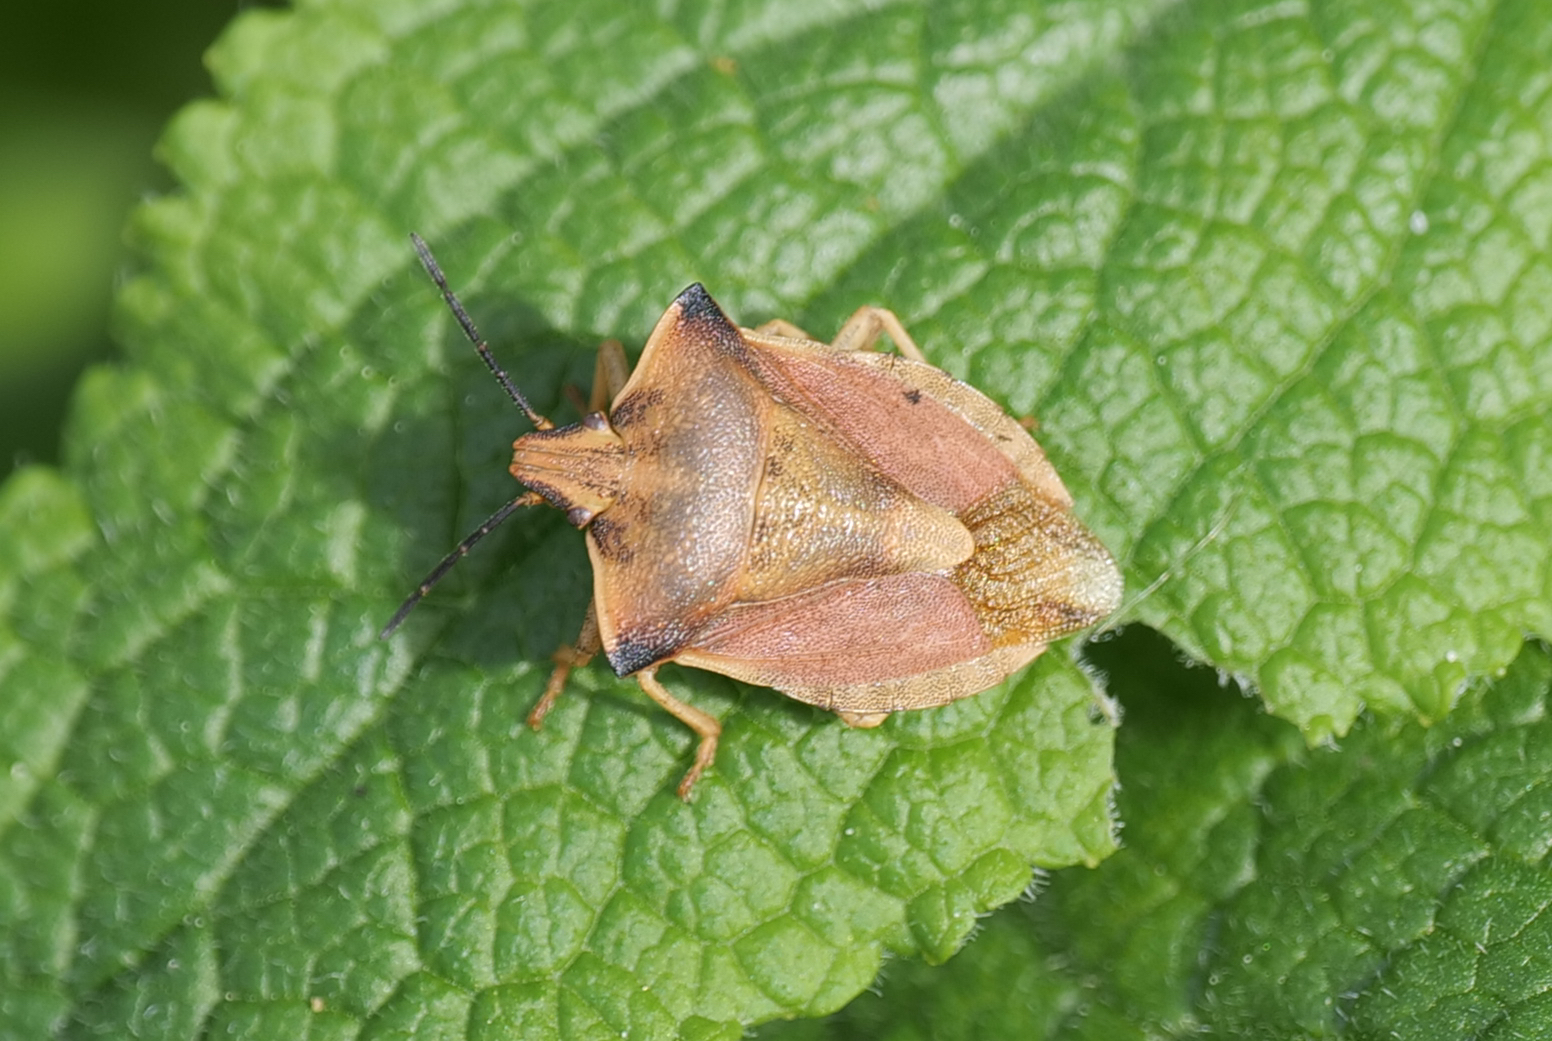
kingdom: Animalia
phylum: Arthropoda
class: Insecta
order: Hemiptera
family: Pentatomidae
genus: Carpocoris
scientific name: Carpocoris fuscispinus
